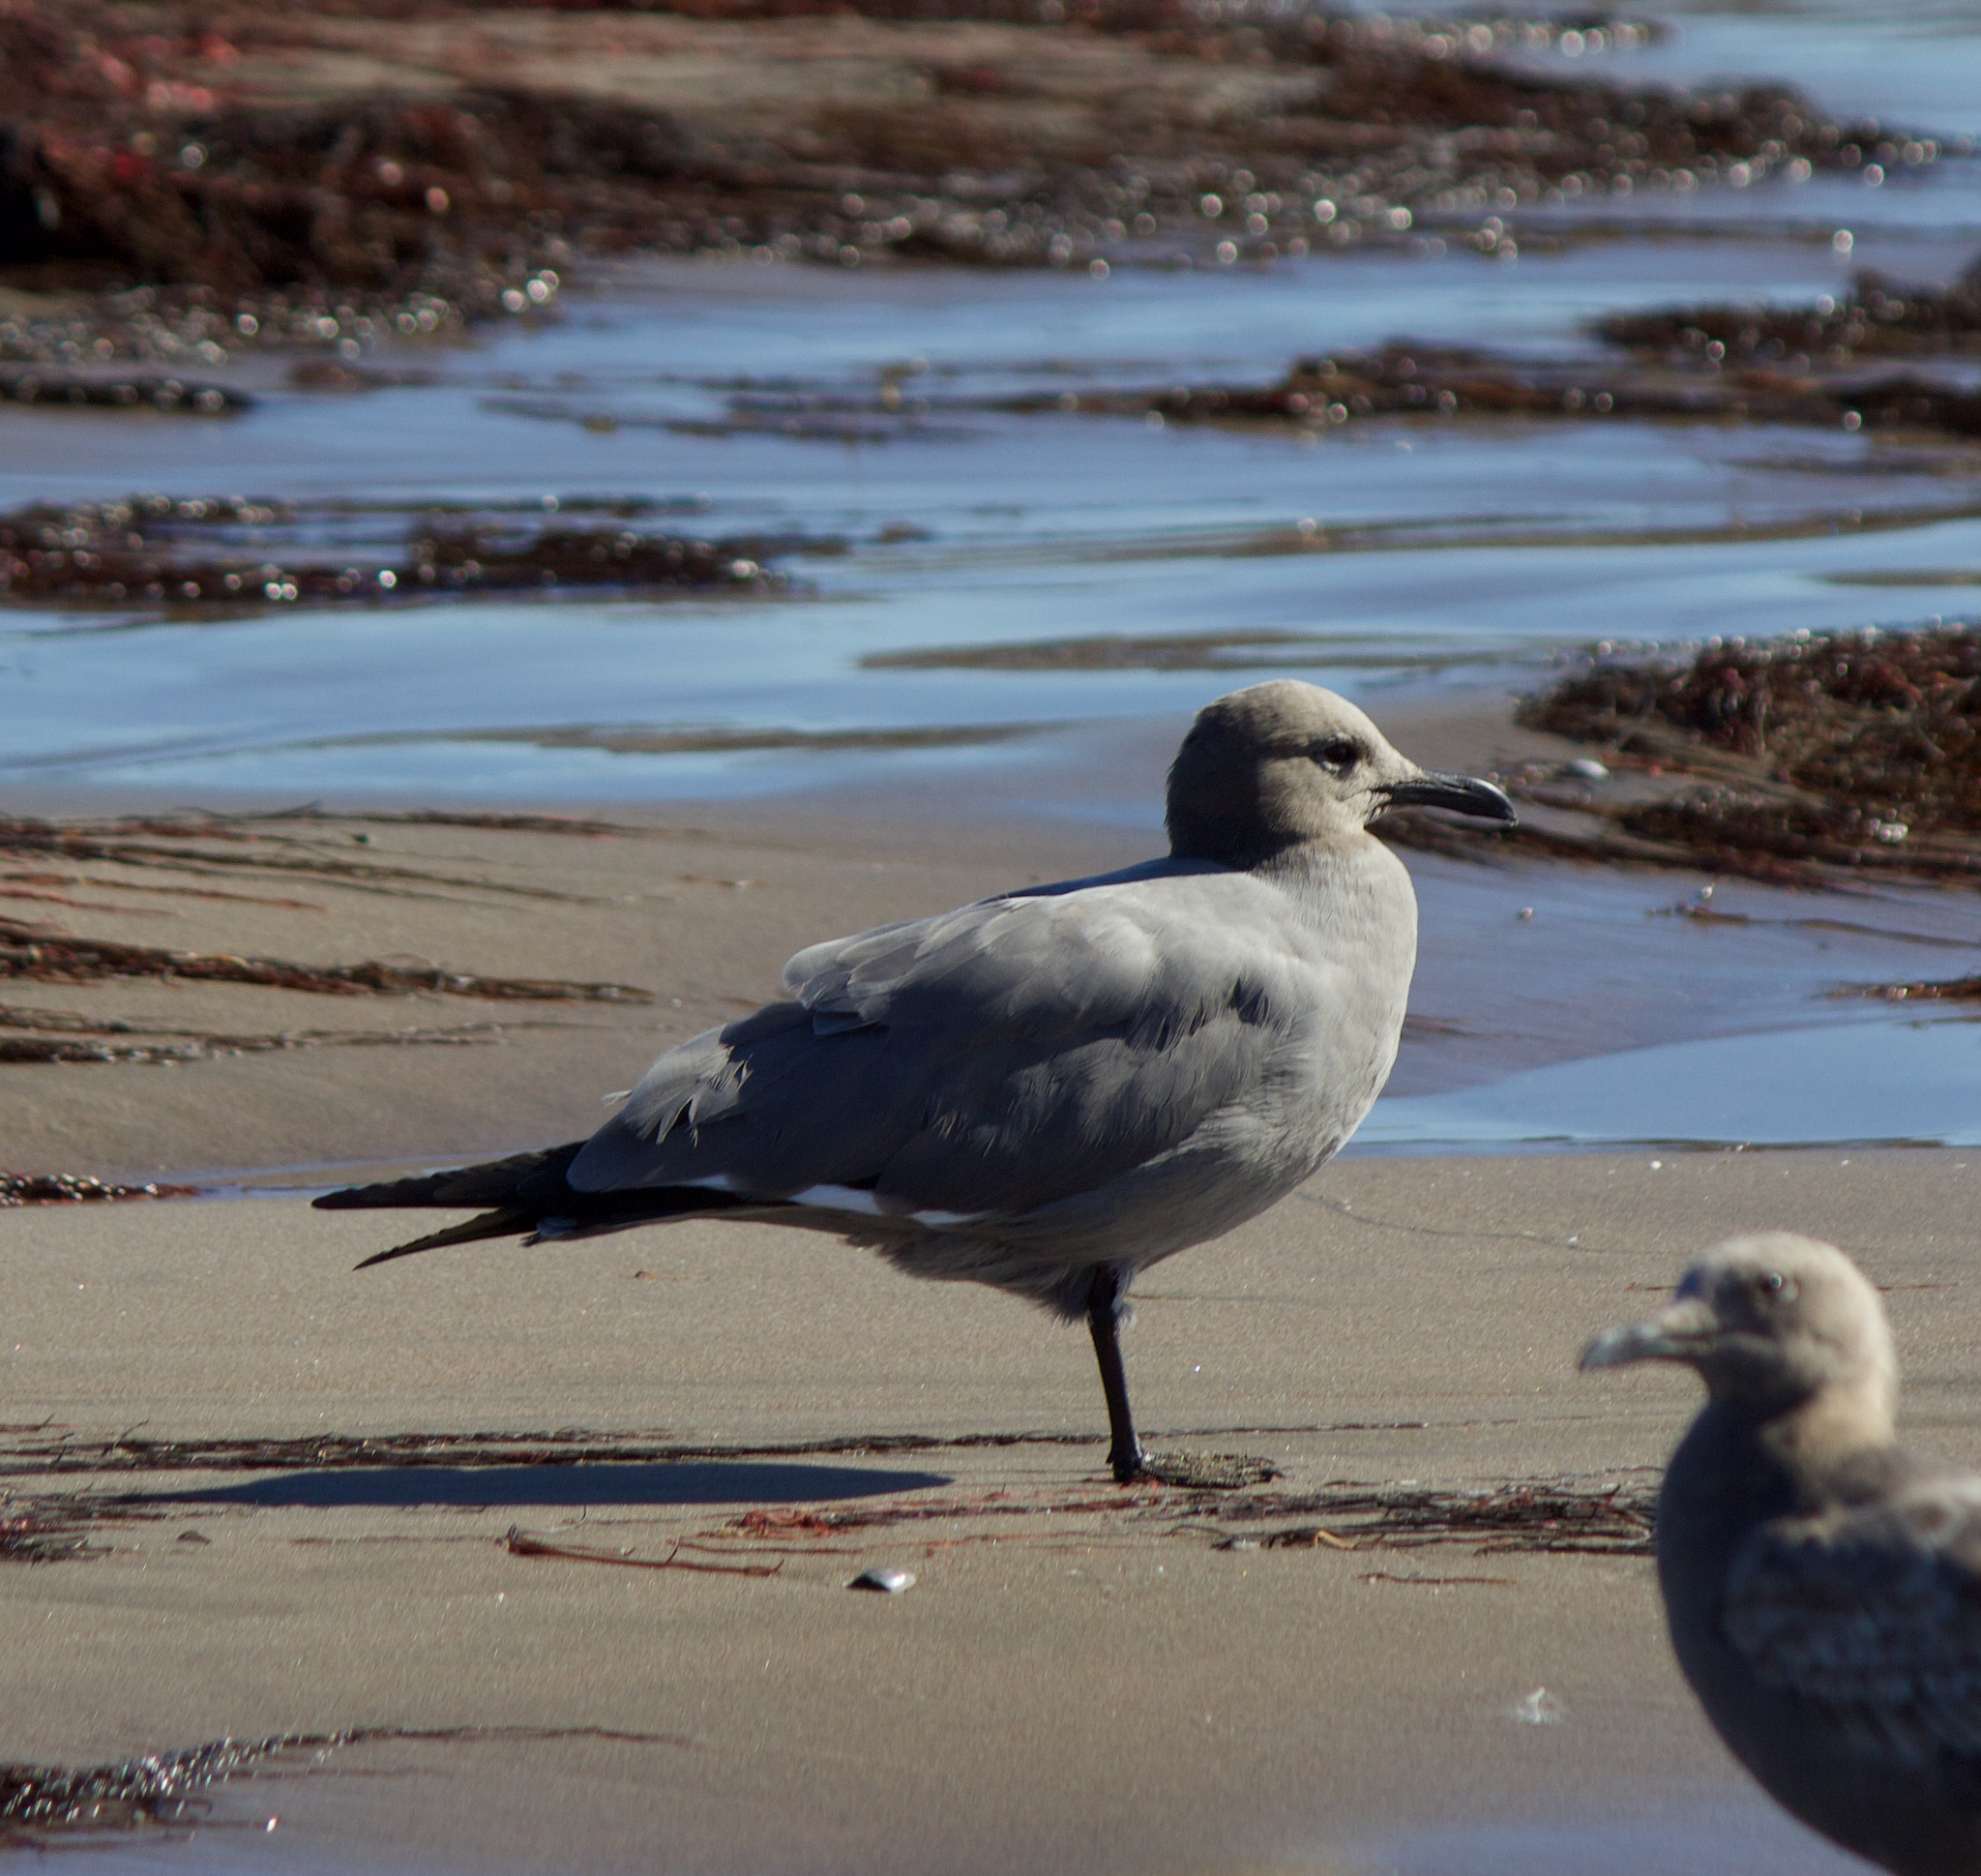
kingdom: Animalia
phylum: Chordata
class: Aves
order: Charadriiformes
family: Laridae
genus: Leucophaeus
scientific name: Leucophaeus modestus
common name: Gray gull
